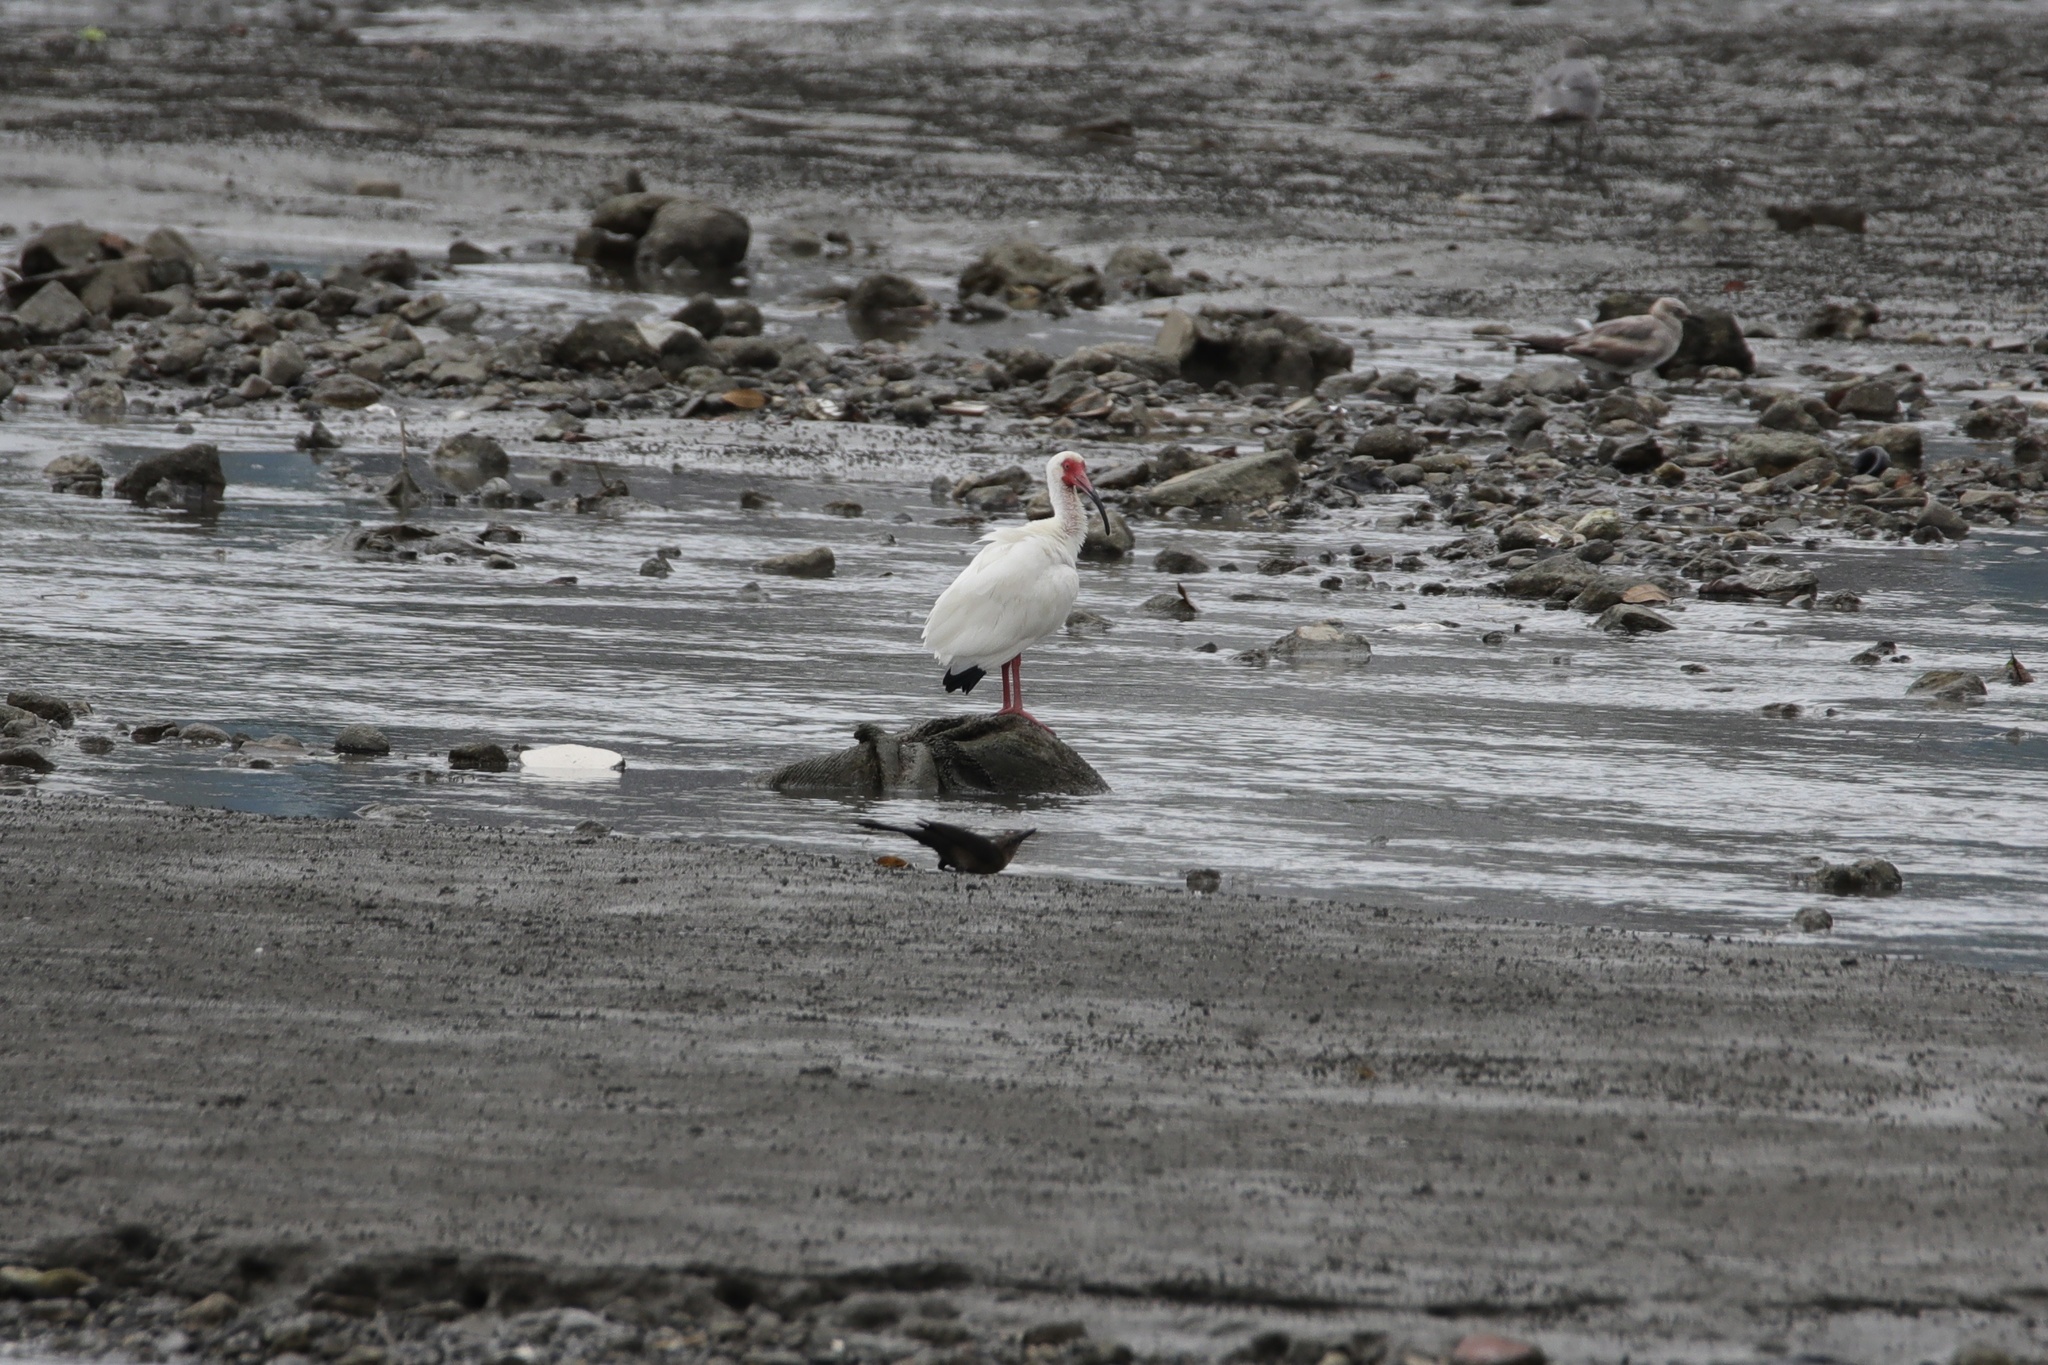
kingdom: Animalia
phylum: Chordata
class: Aves
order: Pelecaniformes
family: Threskiornithidae
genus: Eudocimus
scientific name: Eudocimus albus
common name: White ibis
